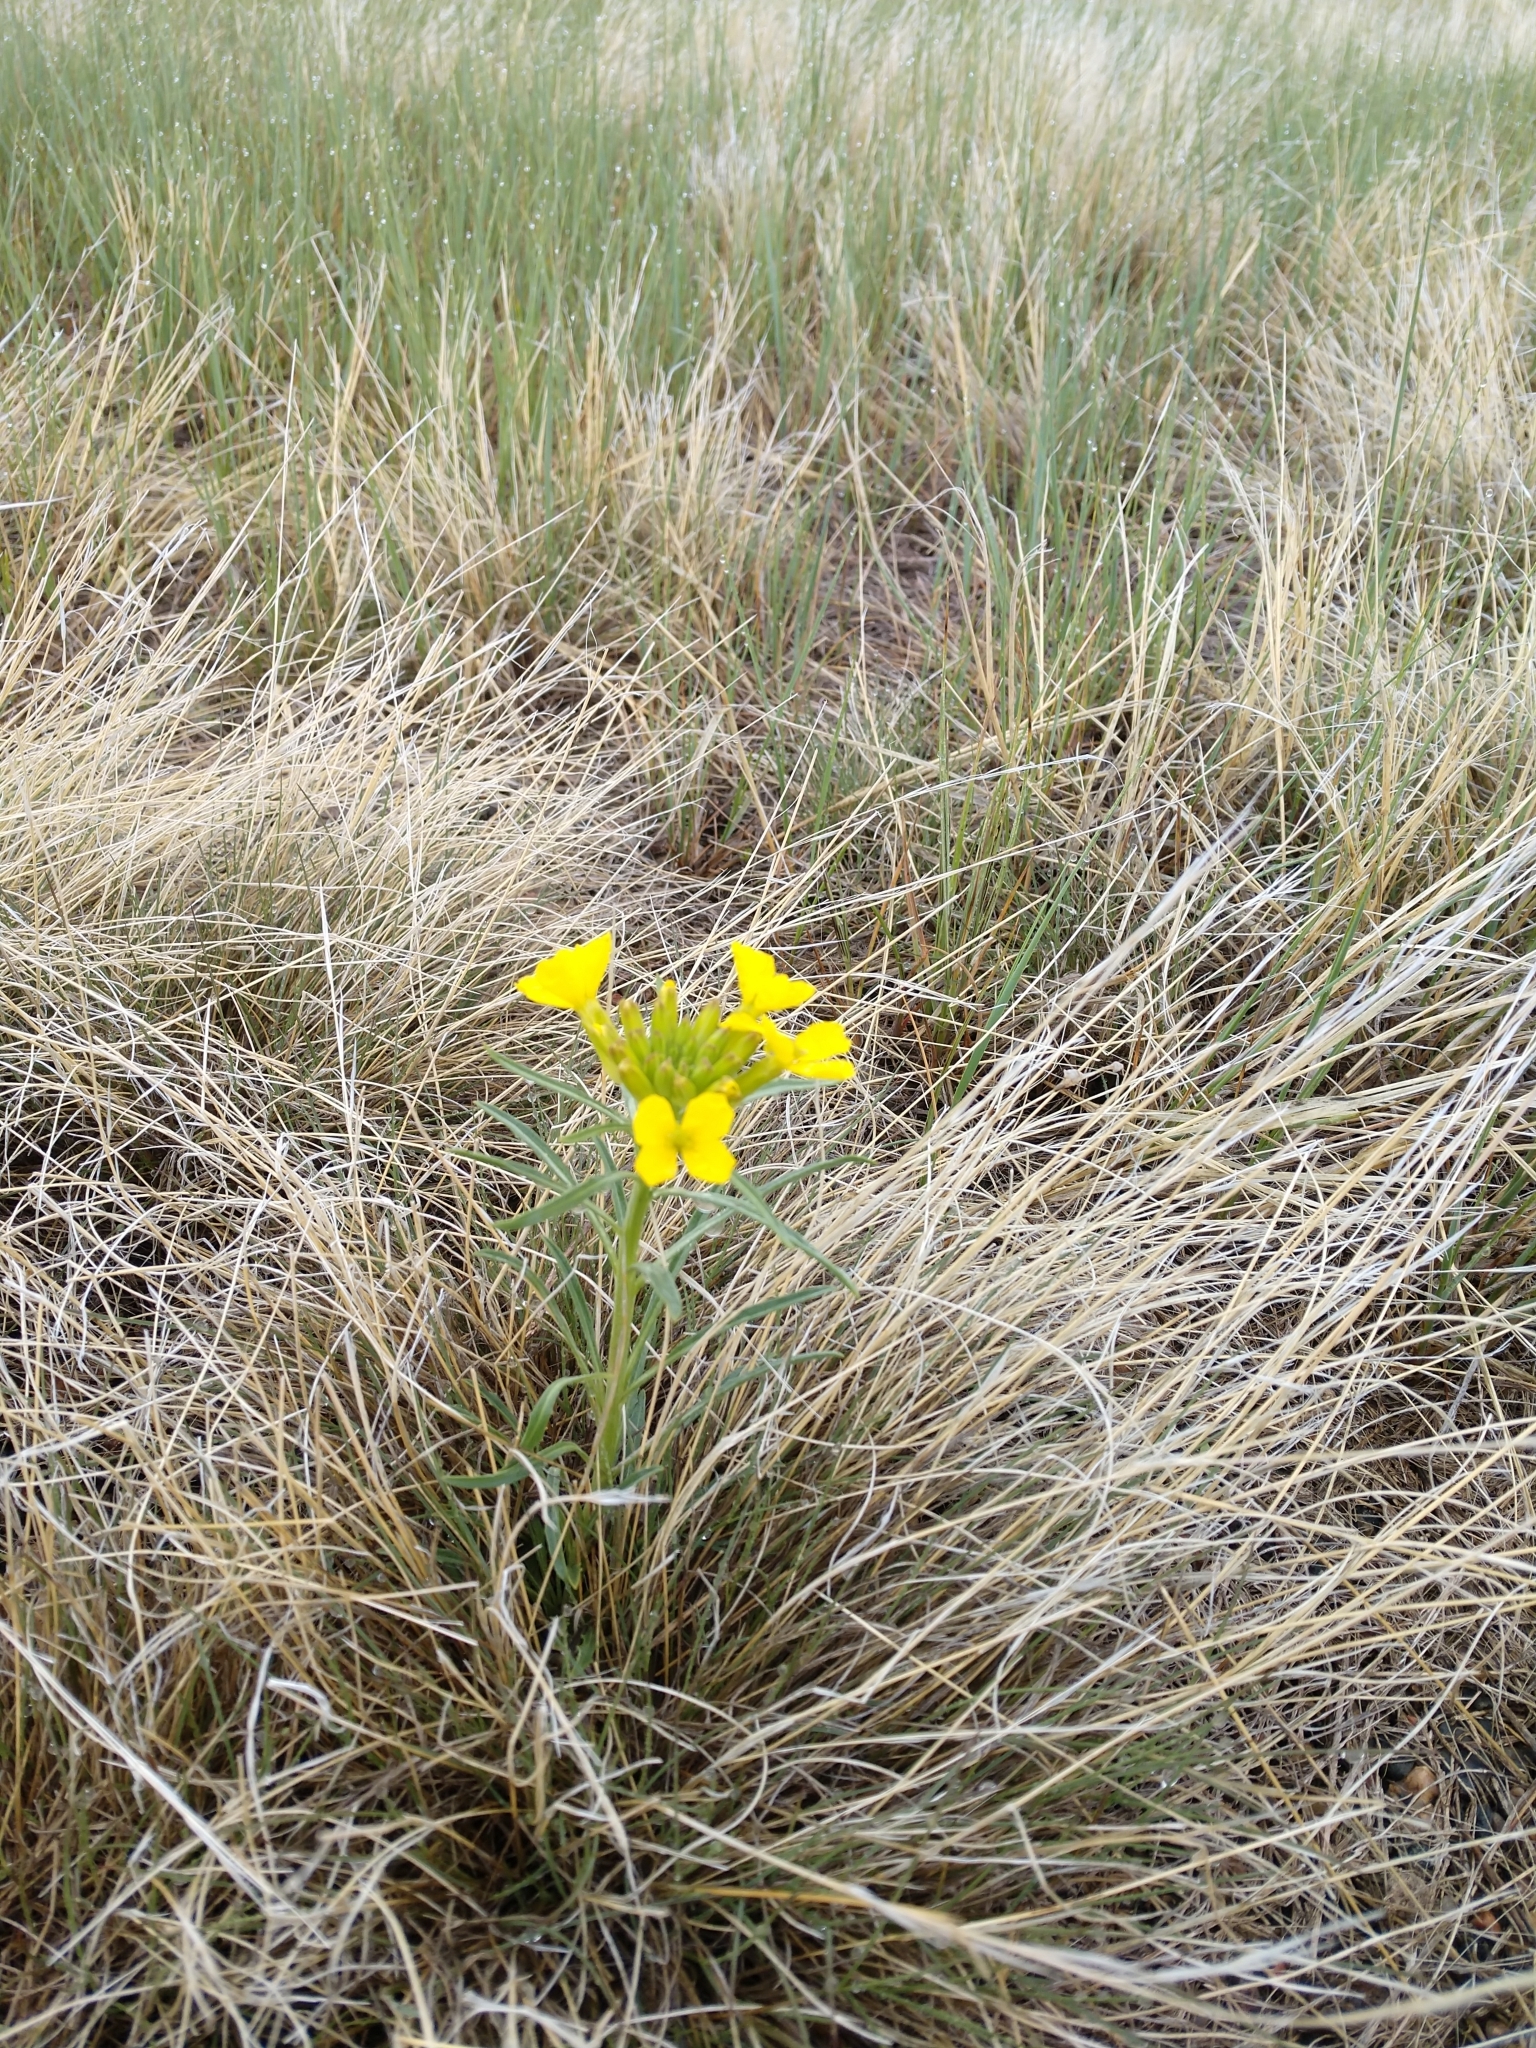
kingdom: Plantae
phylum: Tracheophyta
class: Magnoliopsida
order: Brassicales
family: Brassicaceae
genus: Erysimum
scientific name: Erysimum capitatum
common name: Western wallflower
